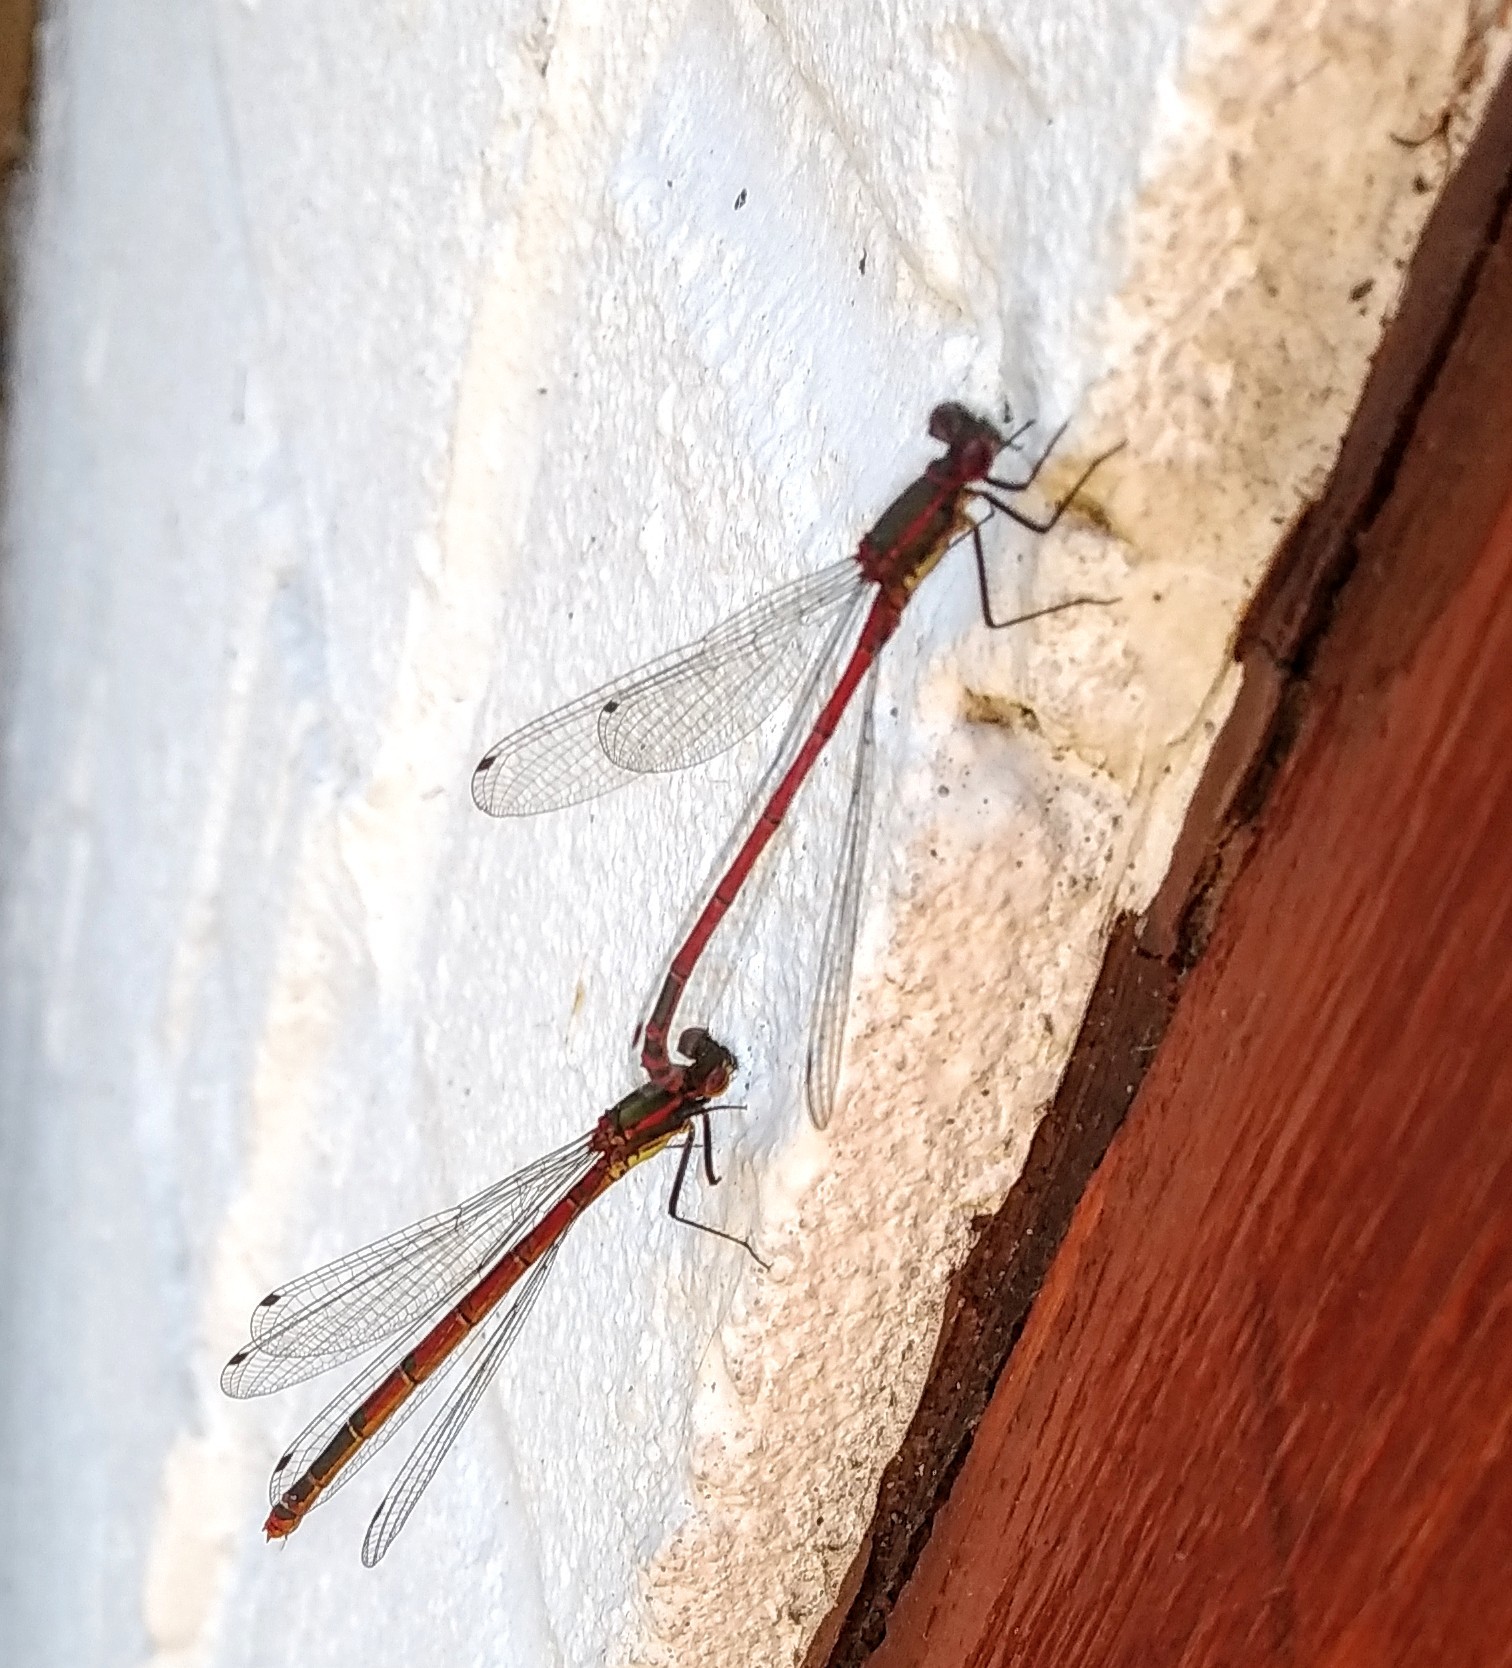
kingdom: Animalia
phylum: Arthropoda
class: Insecta
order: Odonata
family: Coenagrionidae
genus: Pyrrhosoma
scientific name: Pyrrhosoma nymphula
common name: Large red damsel
